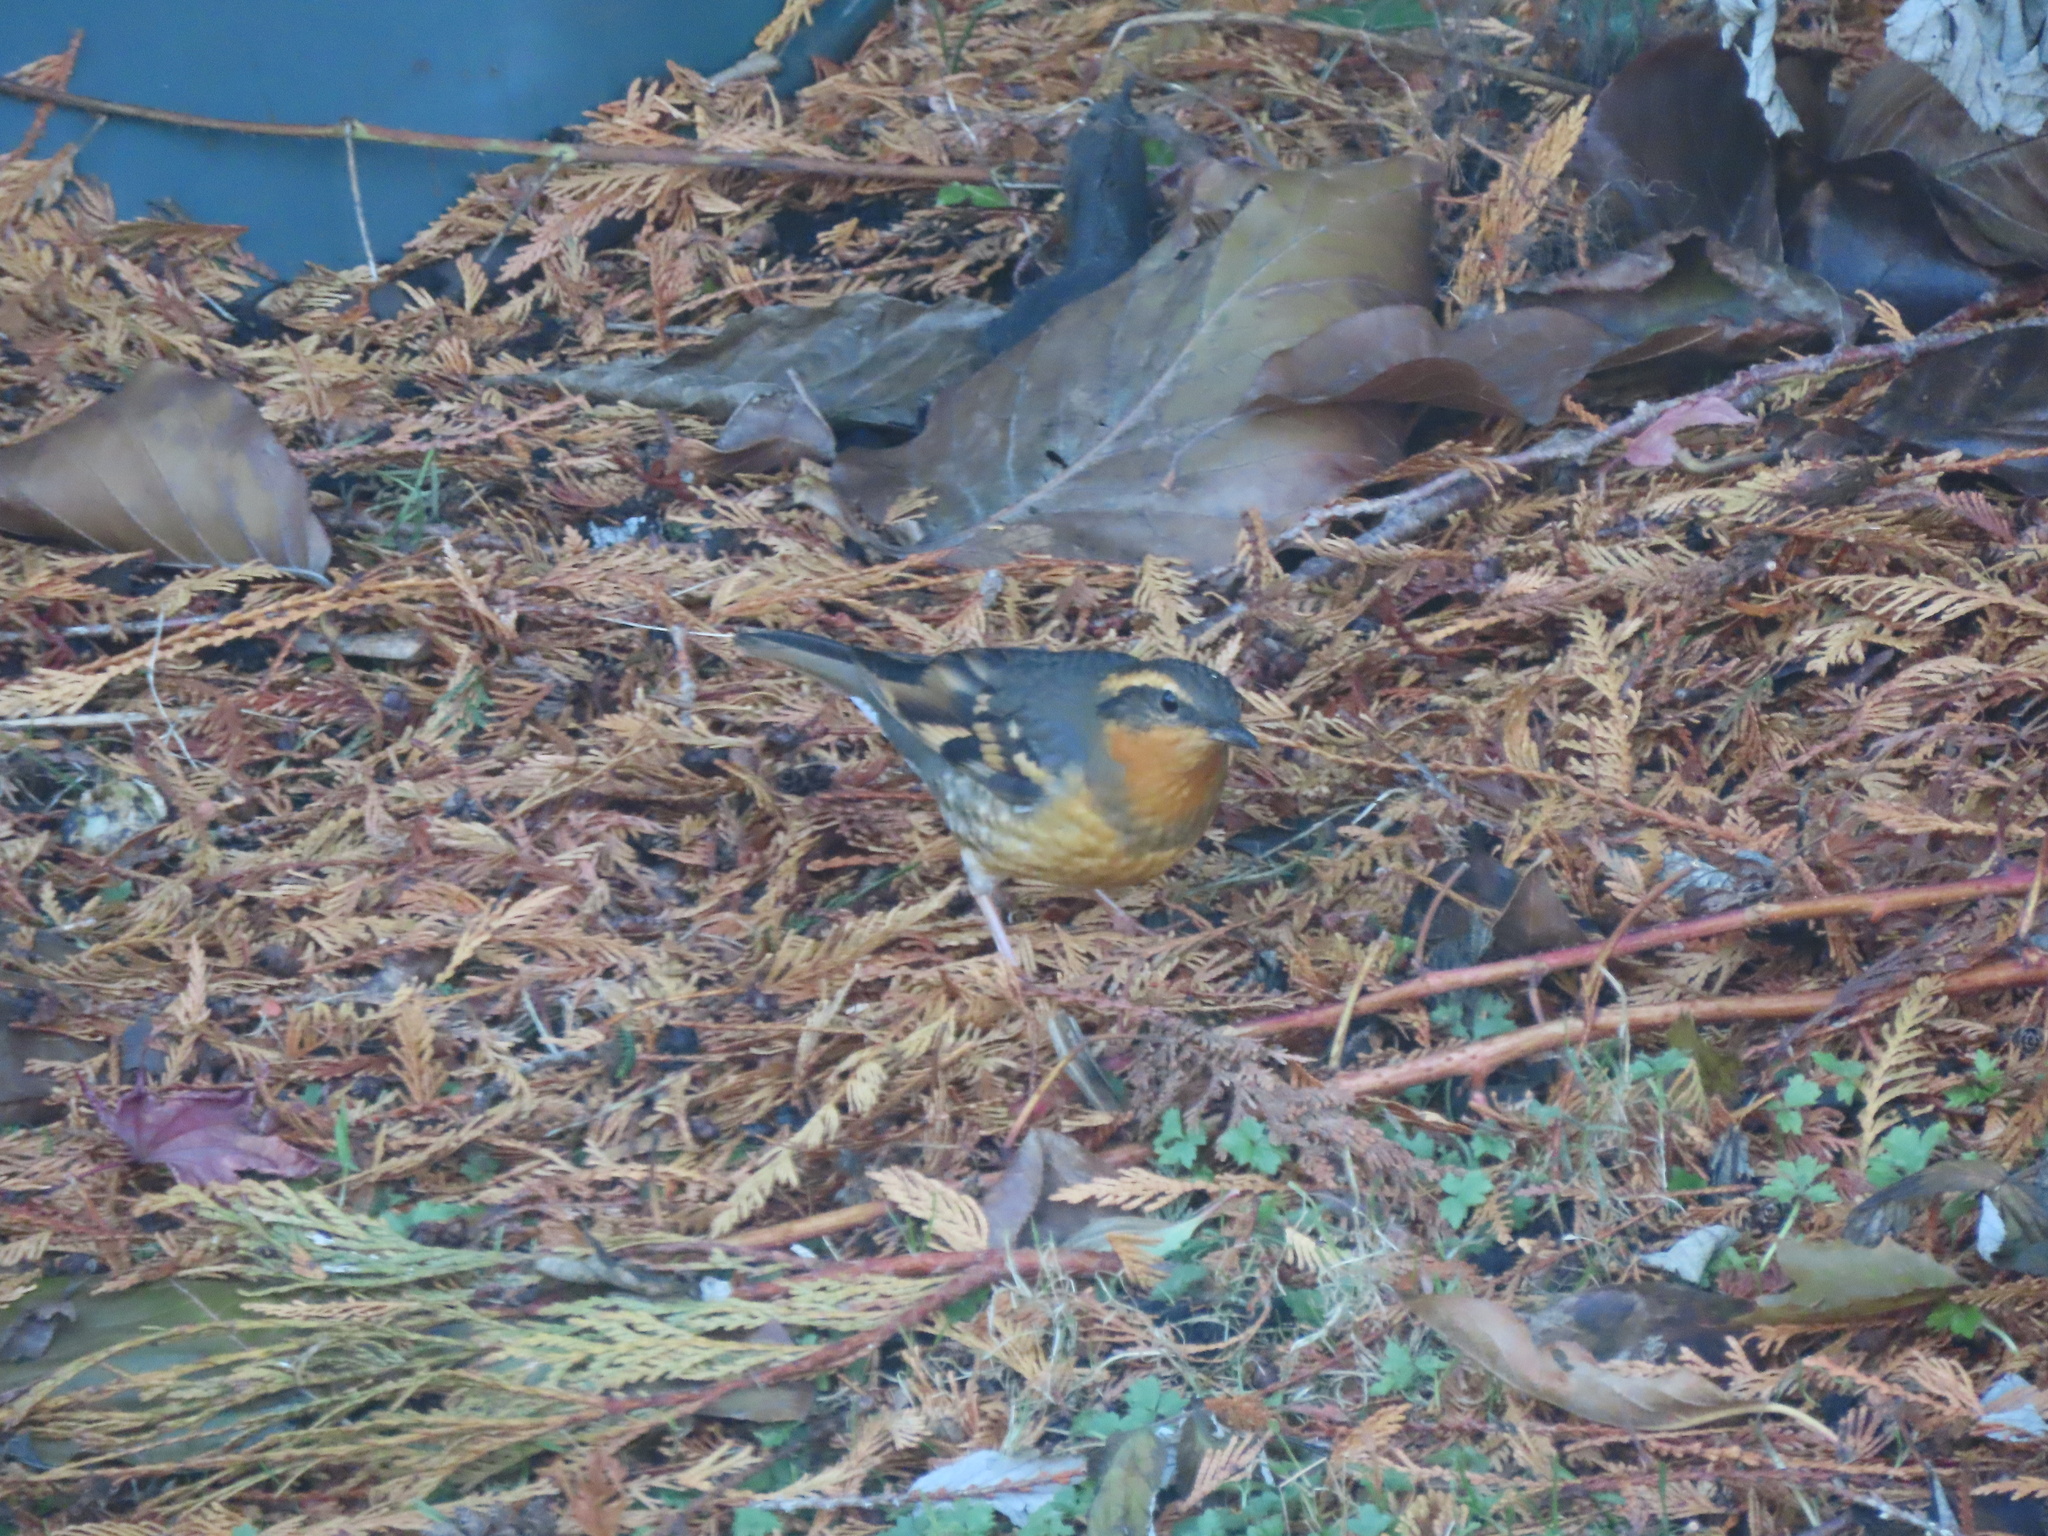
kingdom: Animalia
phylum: Chordata
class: Aves
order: Passeriformes
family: Turdidae
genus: Ixoreus
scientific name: Ixoreus naevius
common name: Varied thrush
